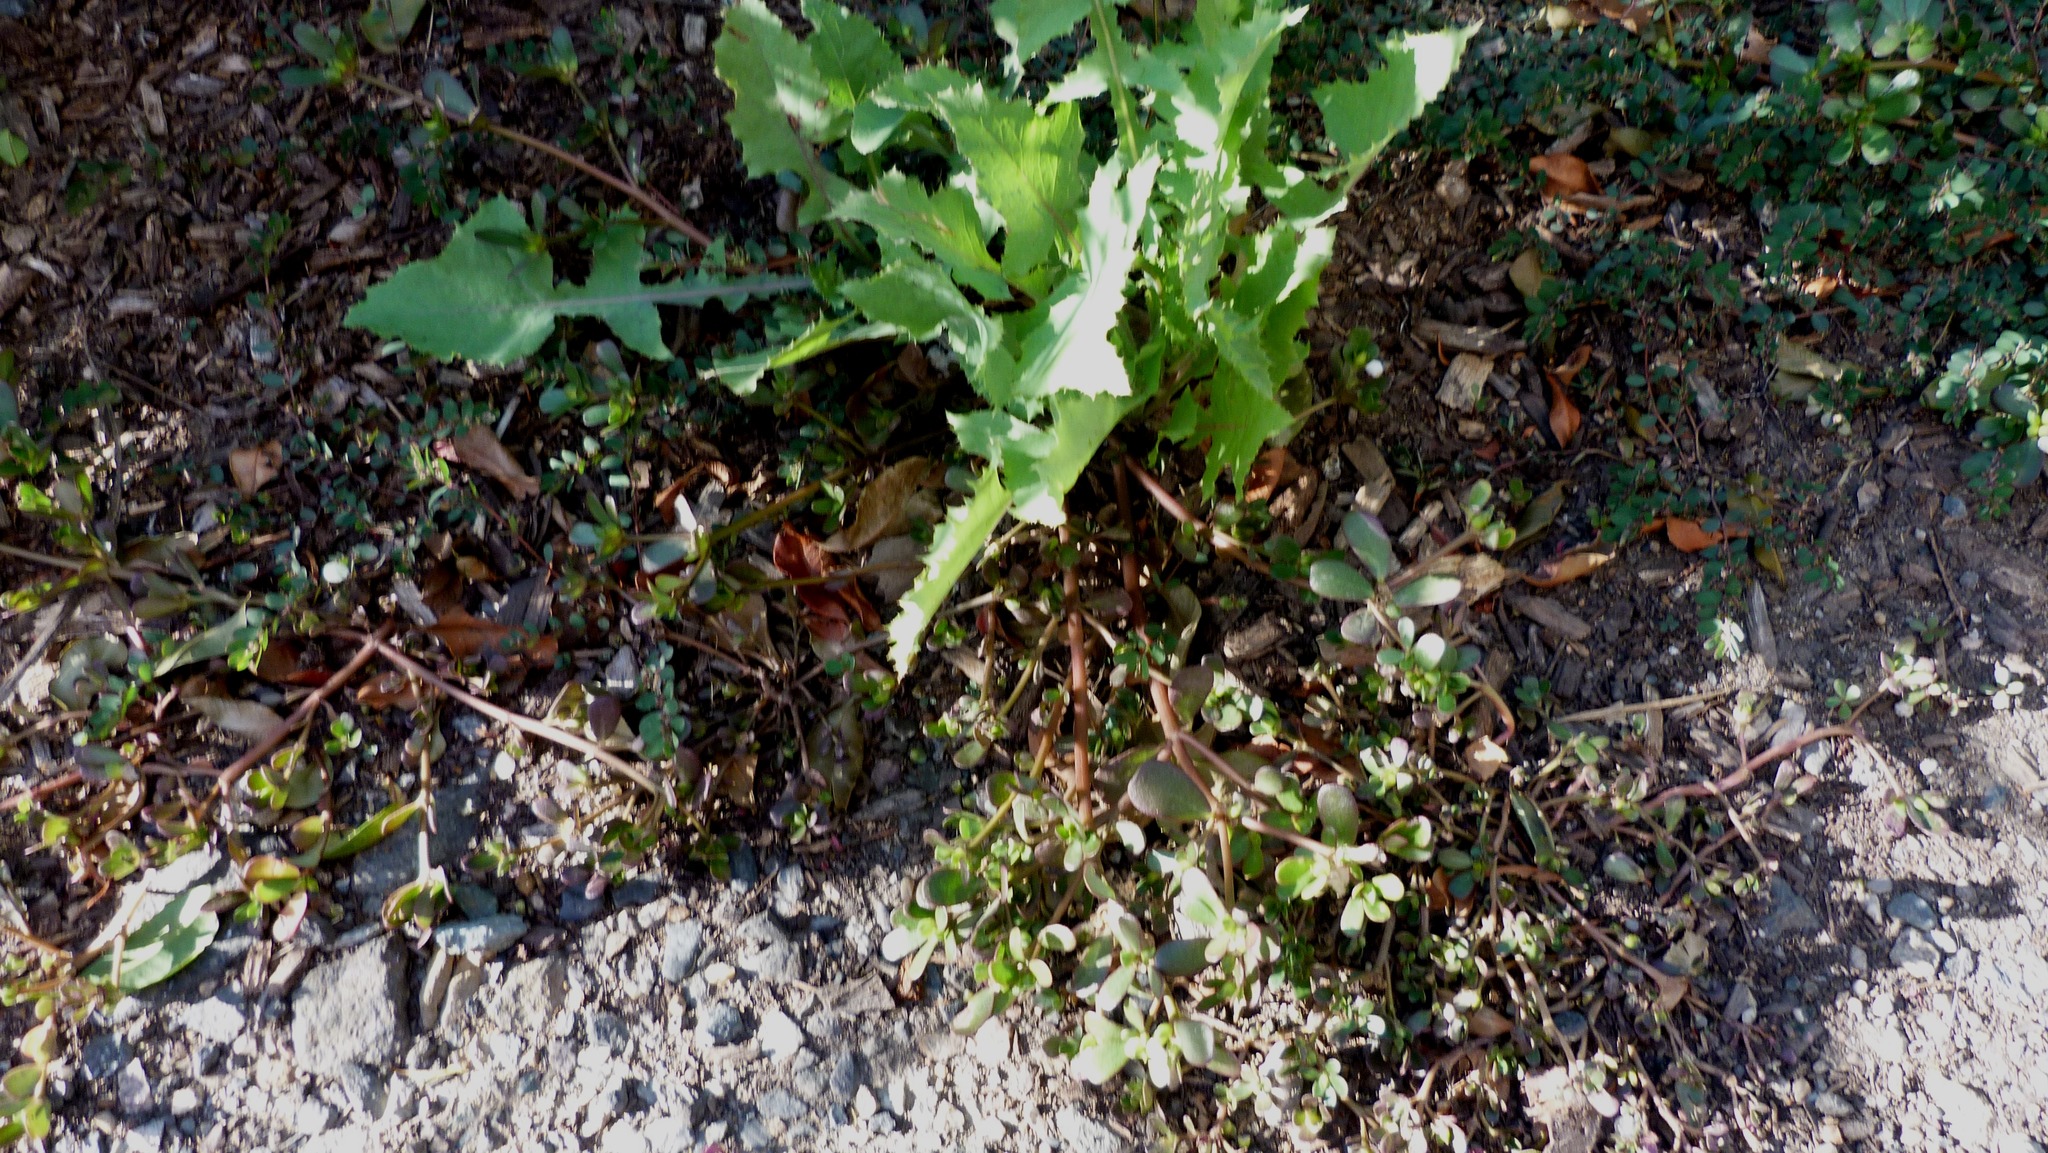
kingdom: Plantae
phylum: Tracheophyta
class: Magnoliopsida
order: Caryophyllales
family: Portulacaceae
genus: Portulaca
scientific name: Portulaca oleracea
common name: Common purslane
